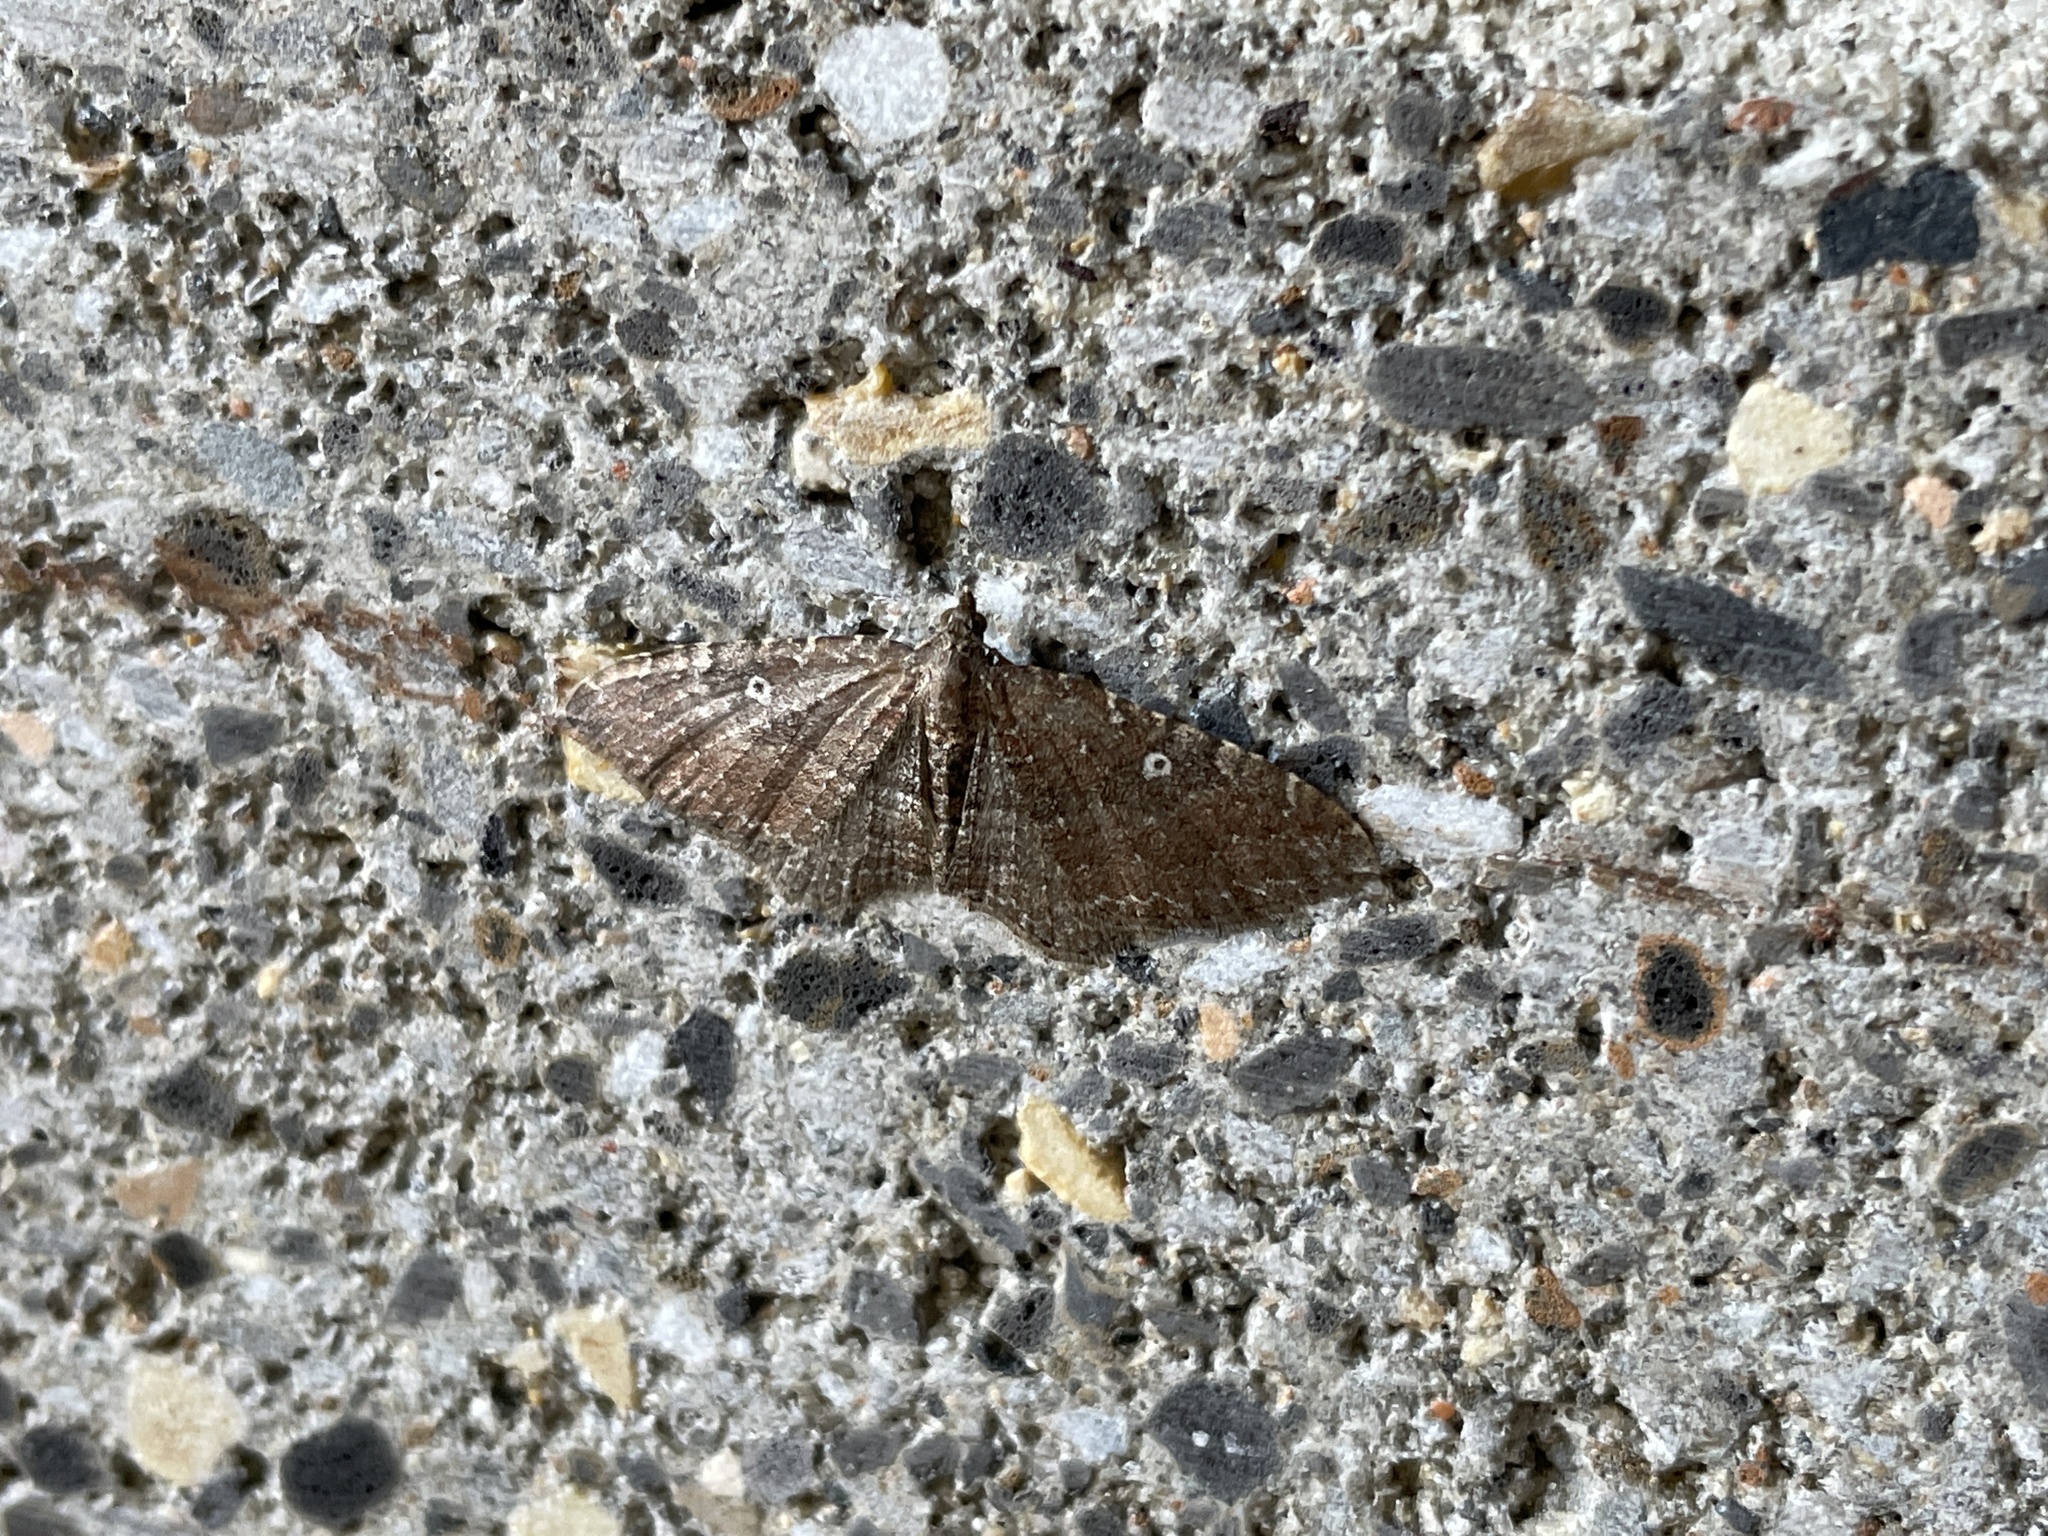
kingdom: Animalia
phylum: Arthropoda
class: Insecta
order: Lepidoptera
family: Geometridae
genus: Orthonama
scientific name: Orthonama obstipata
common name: The gem
